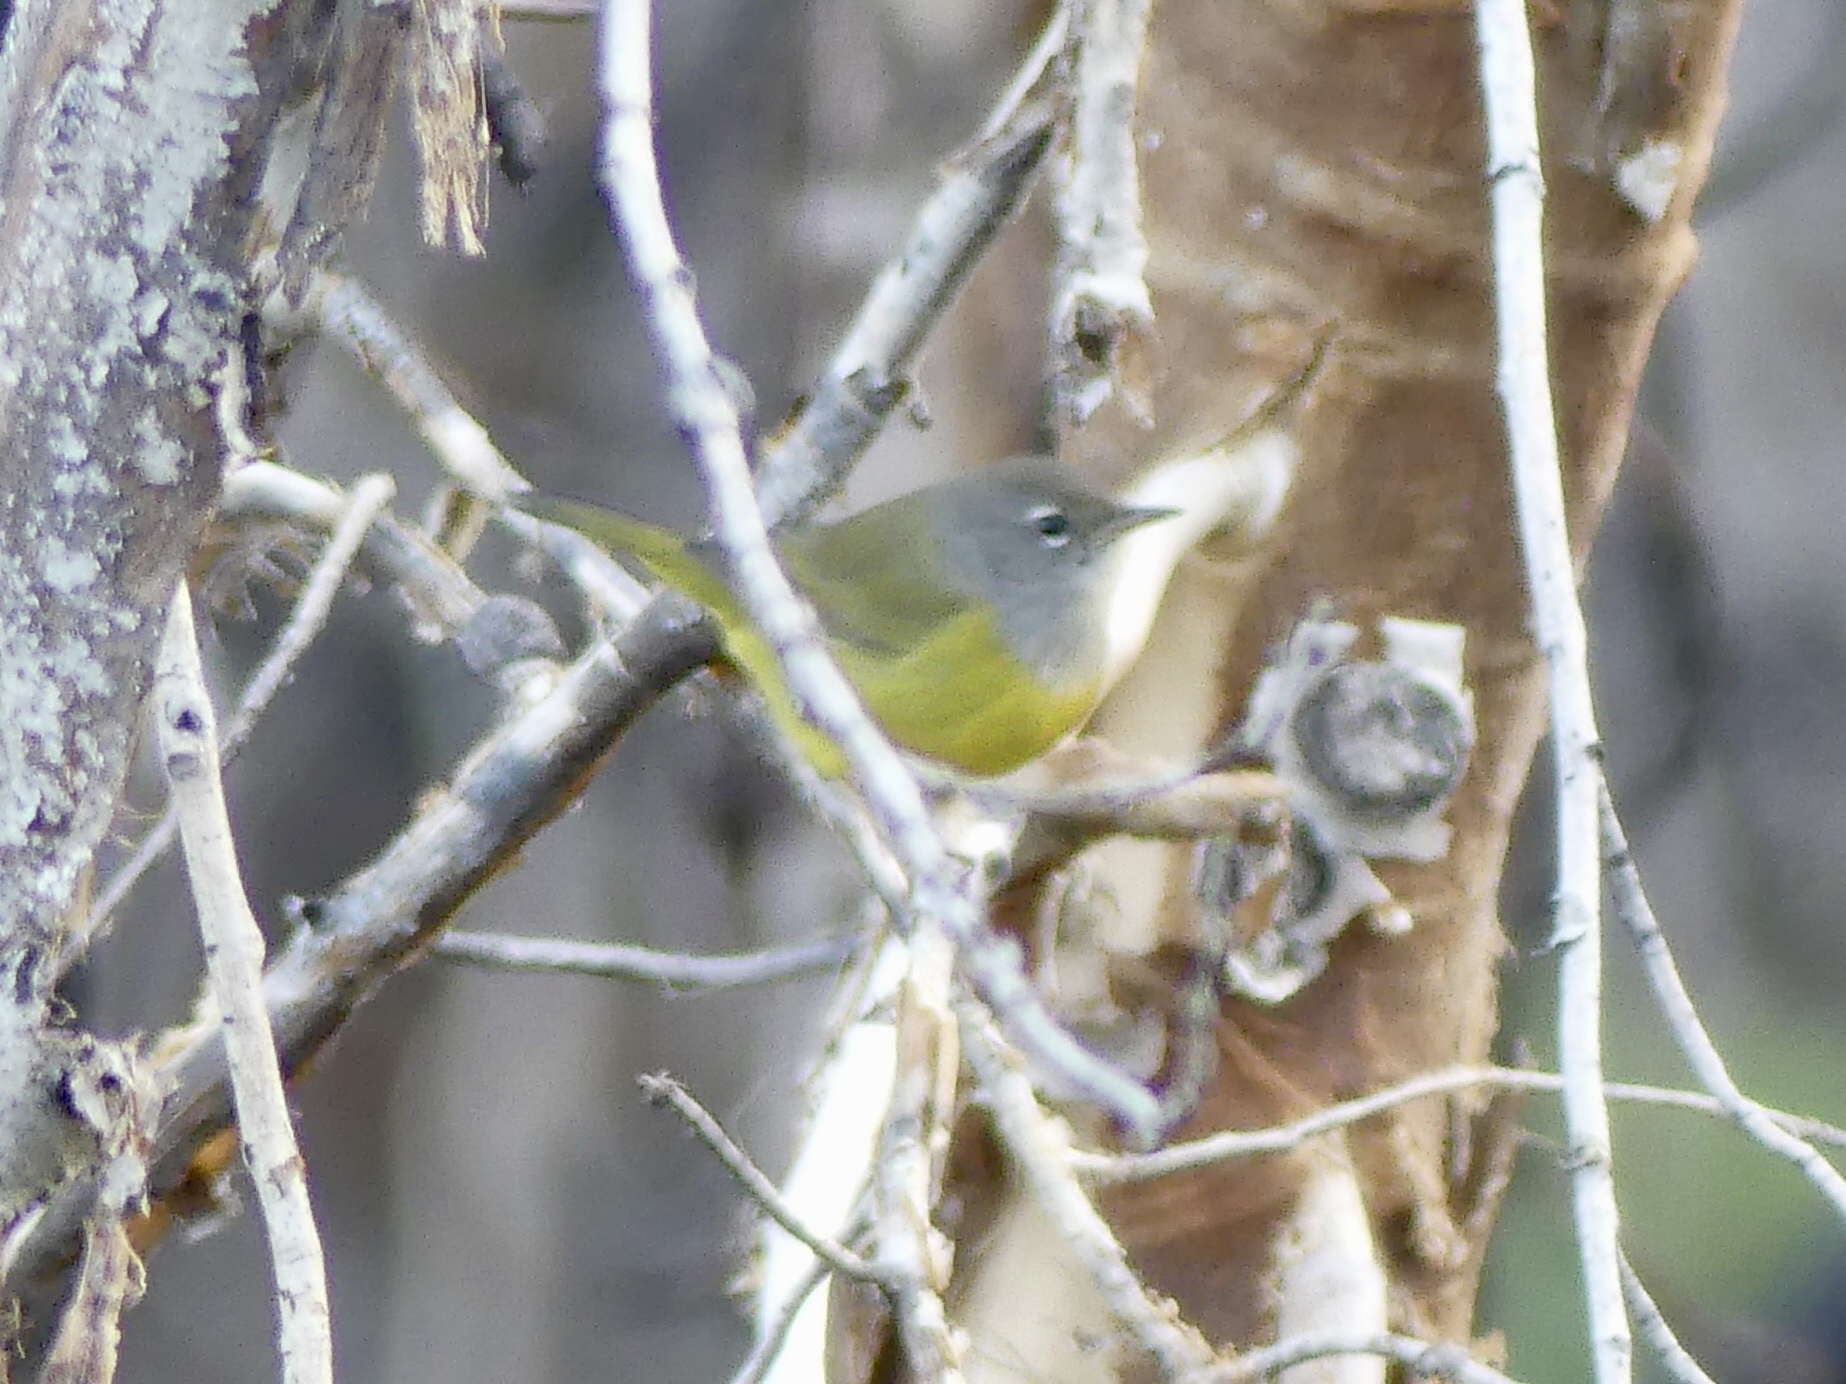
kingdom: Animalia
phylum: Chordata
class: Aves
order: Passeriformes
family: Parulidae
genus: Geothlypis
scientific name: Geothlypis tolmiei
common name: Macgillivray's warbler
